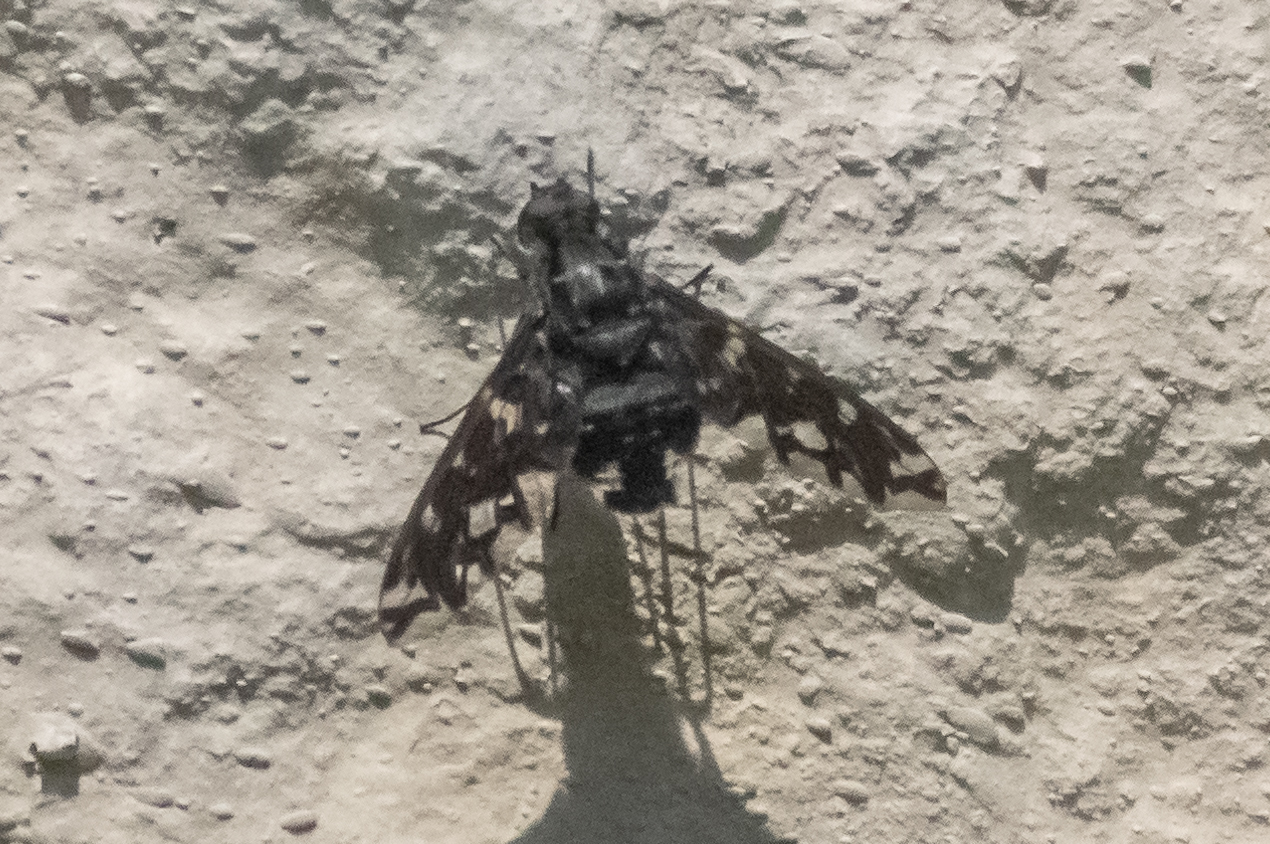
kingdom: Animalia
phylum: Arthropoda
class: Insecta
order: Diptera
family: Bombyliidae
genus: Xenox
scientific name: Xenox tigrinus
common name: Tiger bee fly
